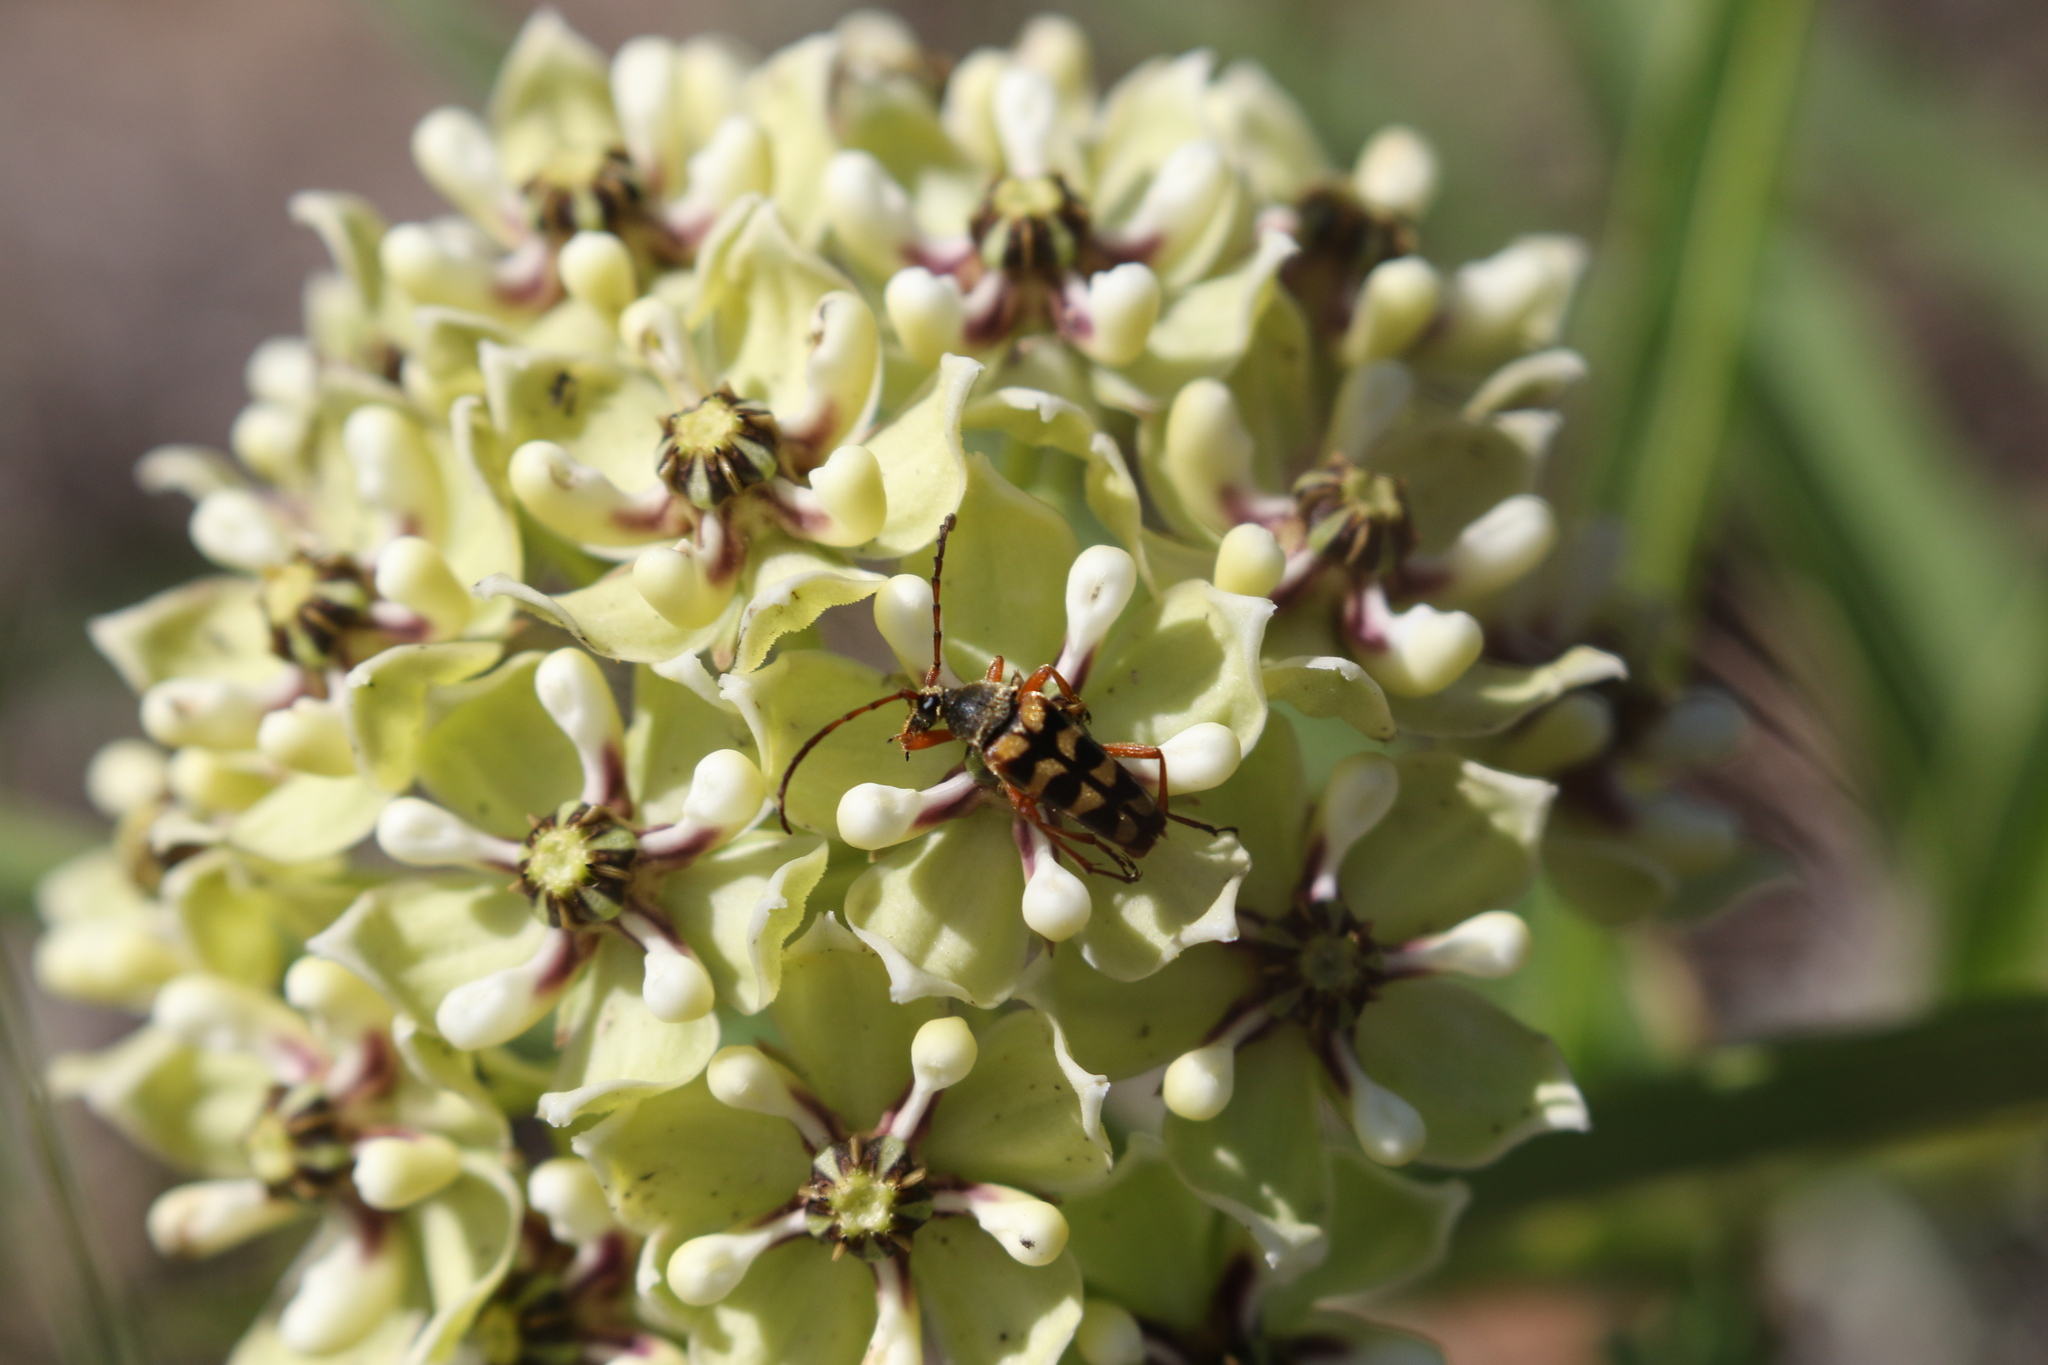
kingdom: Animalia
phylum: Arthropoda
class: Insecta
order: Coleoptera
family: Cerambycidae
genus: Typocerus
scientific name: Typocerus sinuatus
